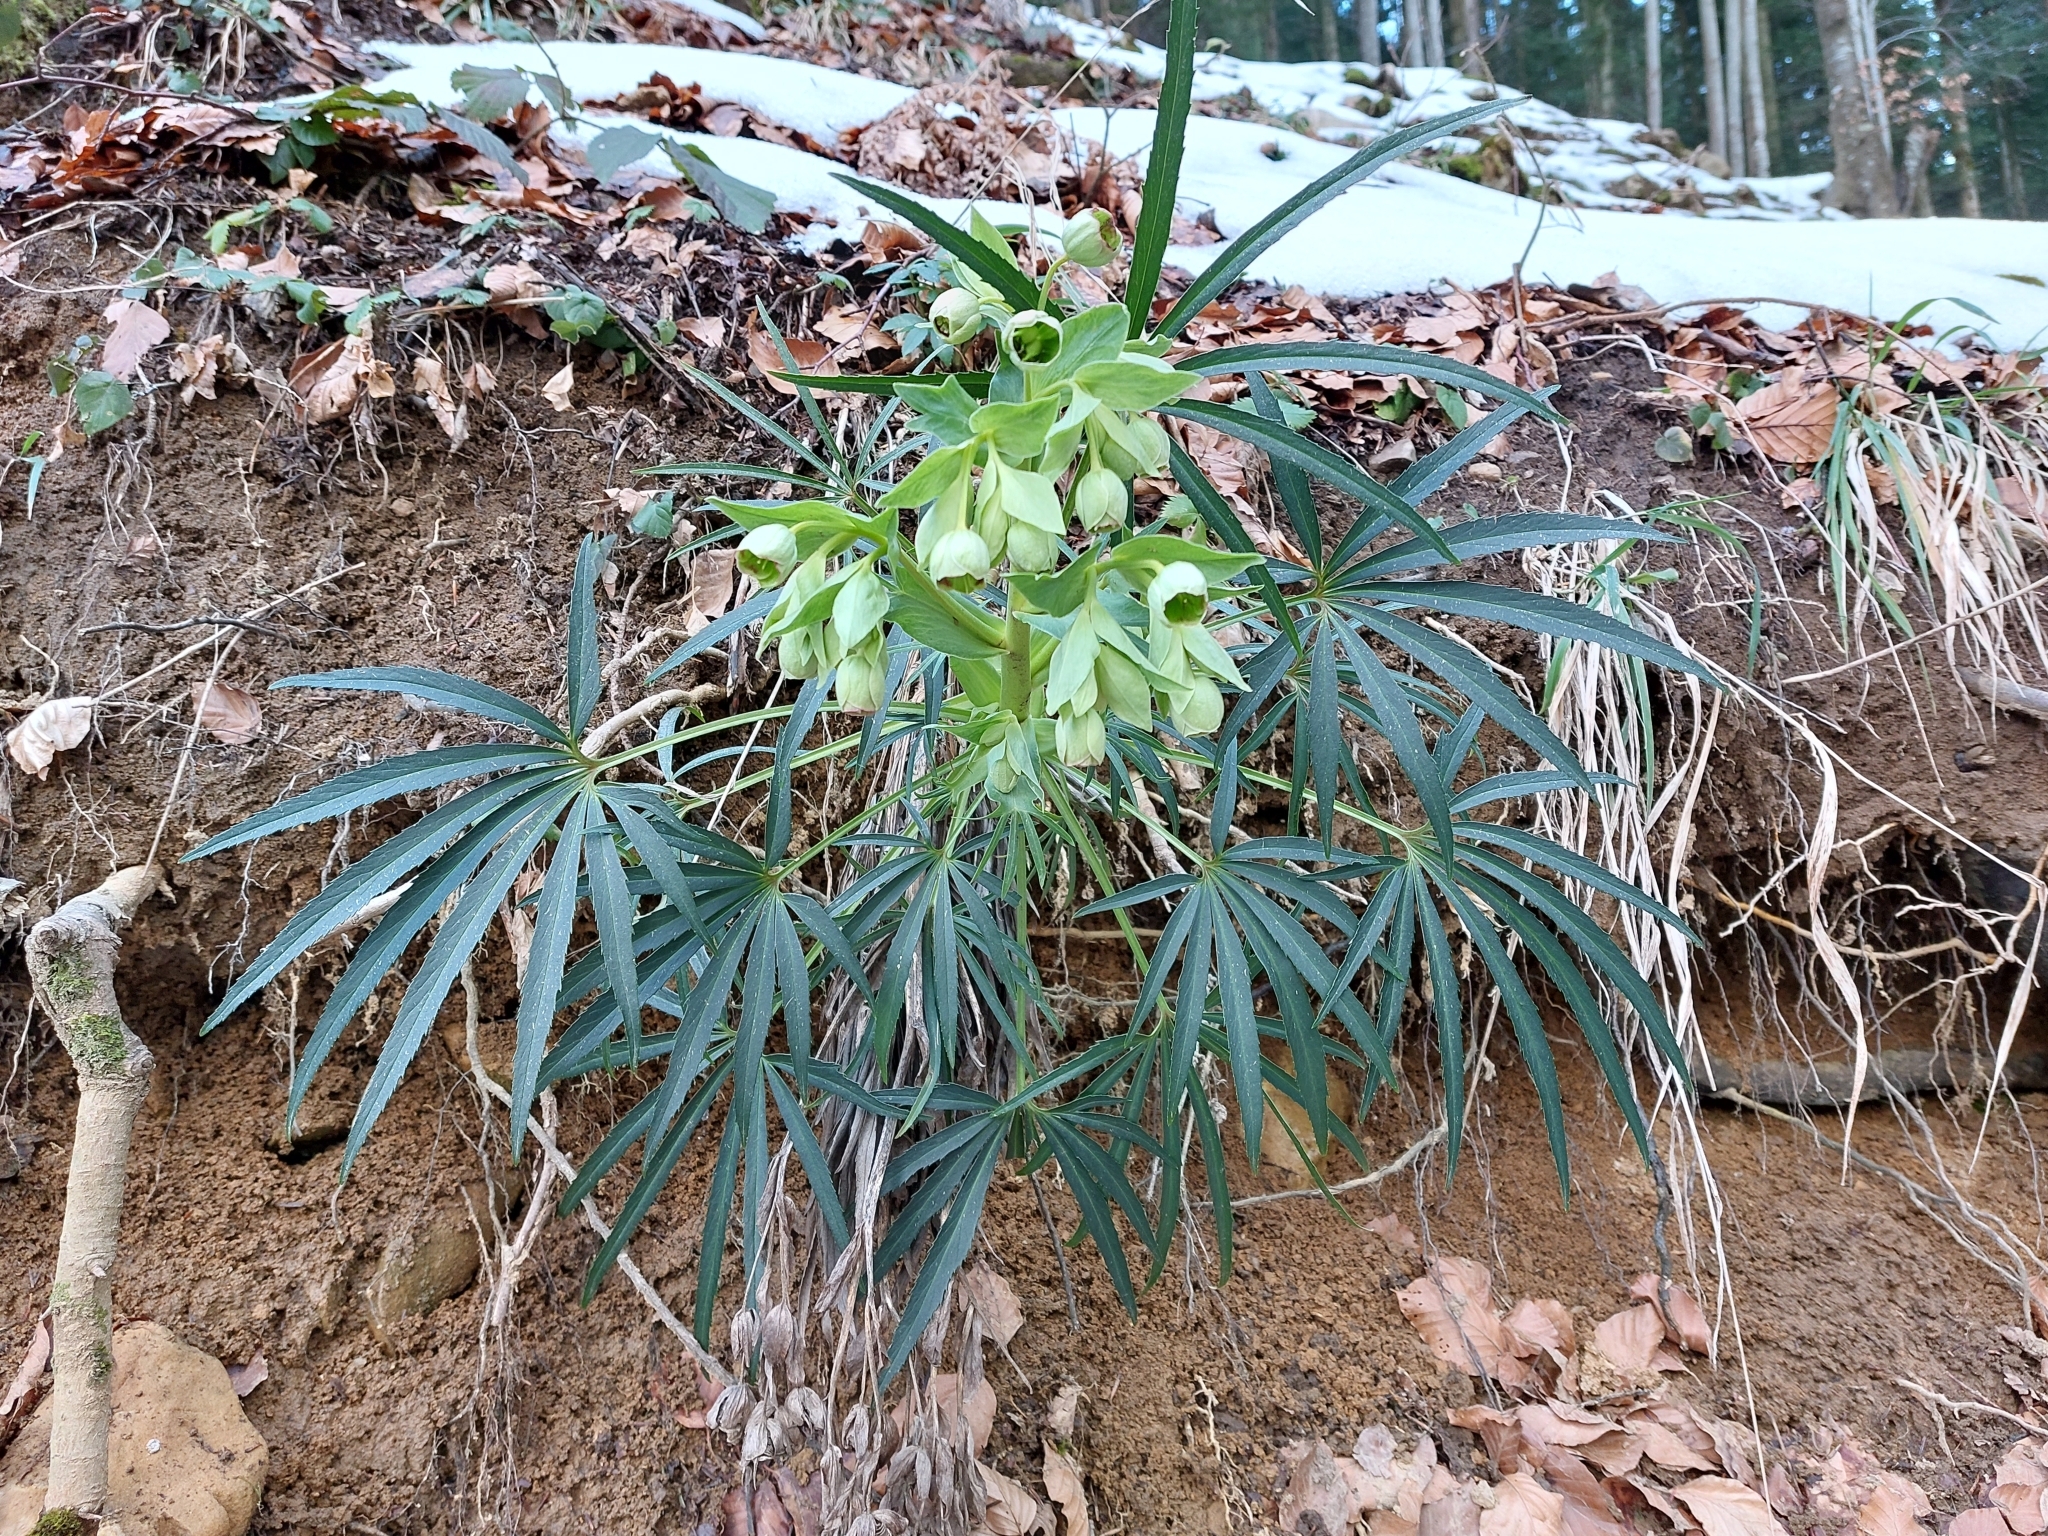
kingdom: Plantae
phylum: Tracheophyta
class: Magnoliopsida
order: Ranunculales
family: Ranunculaceae
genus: Helleborus
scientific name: Helleborus foetidus
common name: Stinking hellebore
